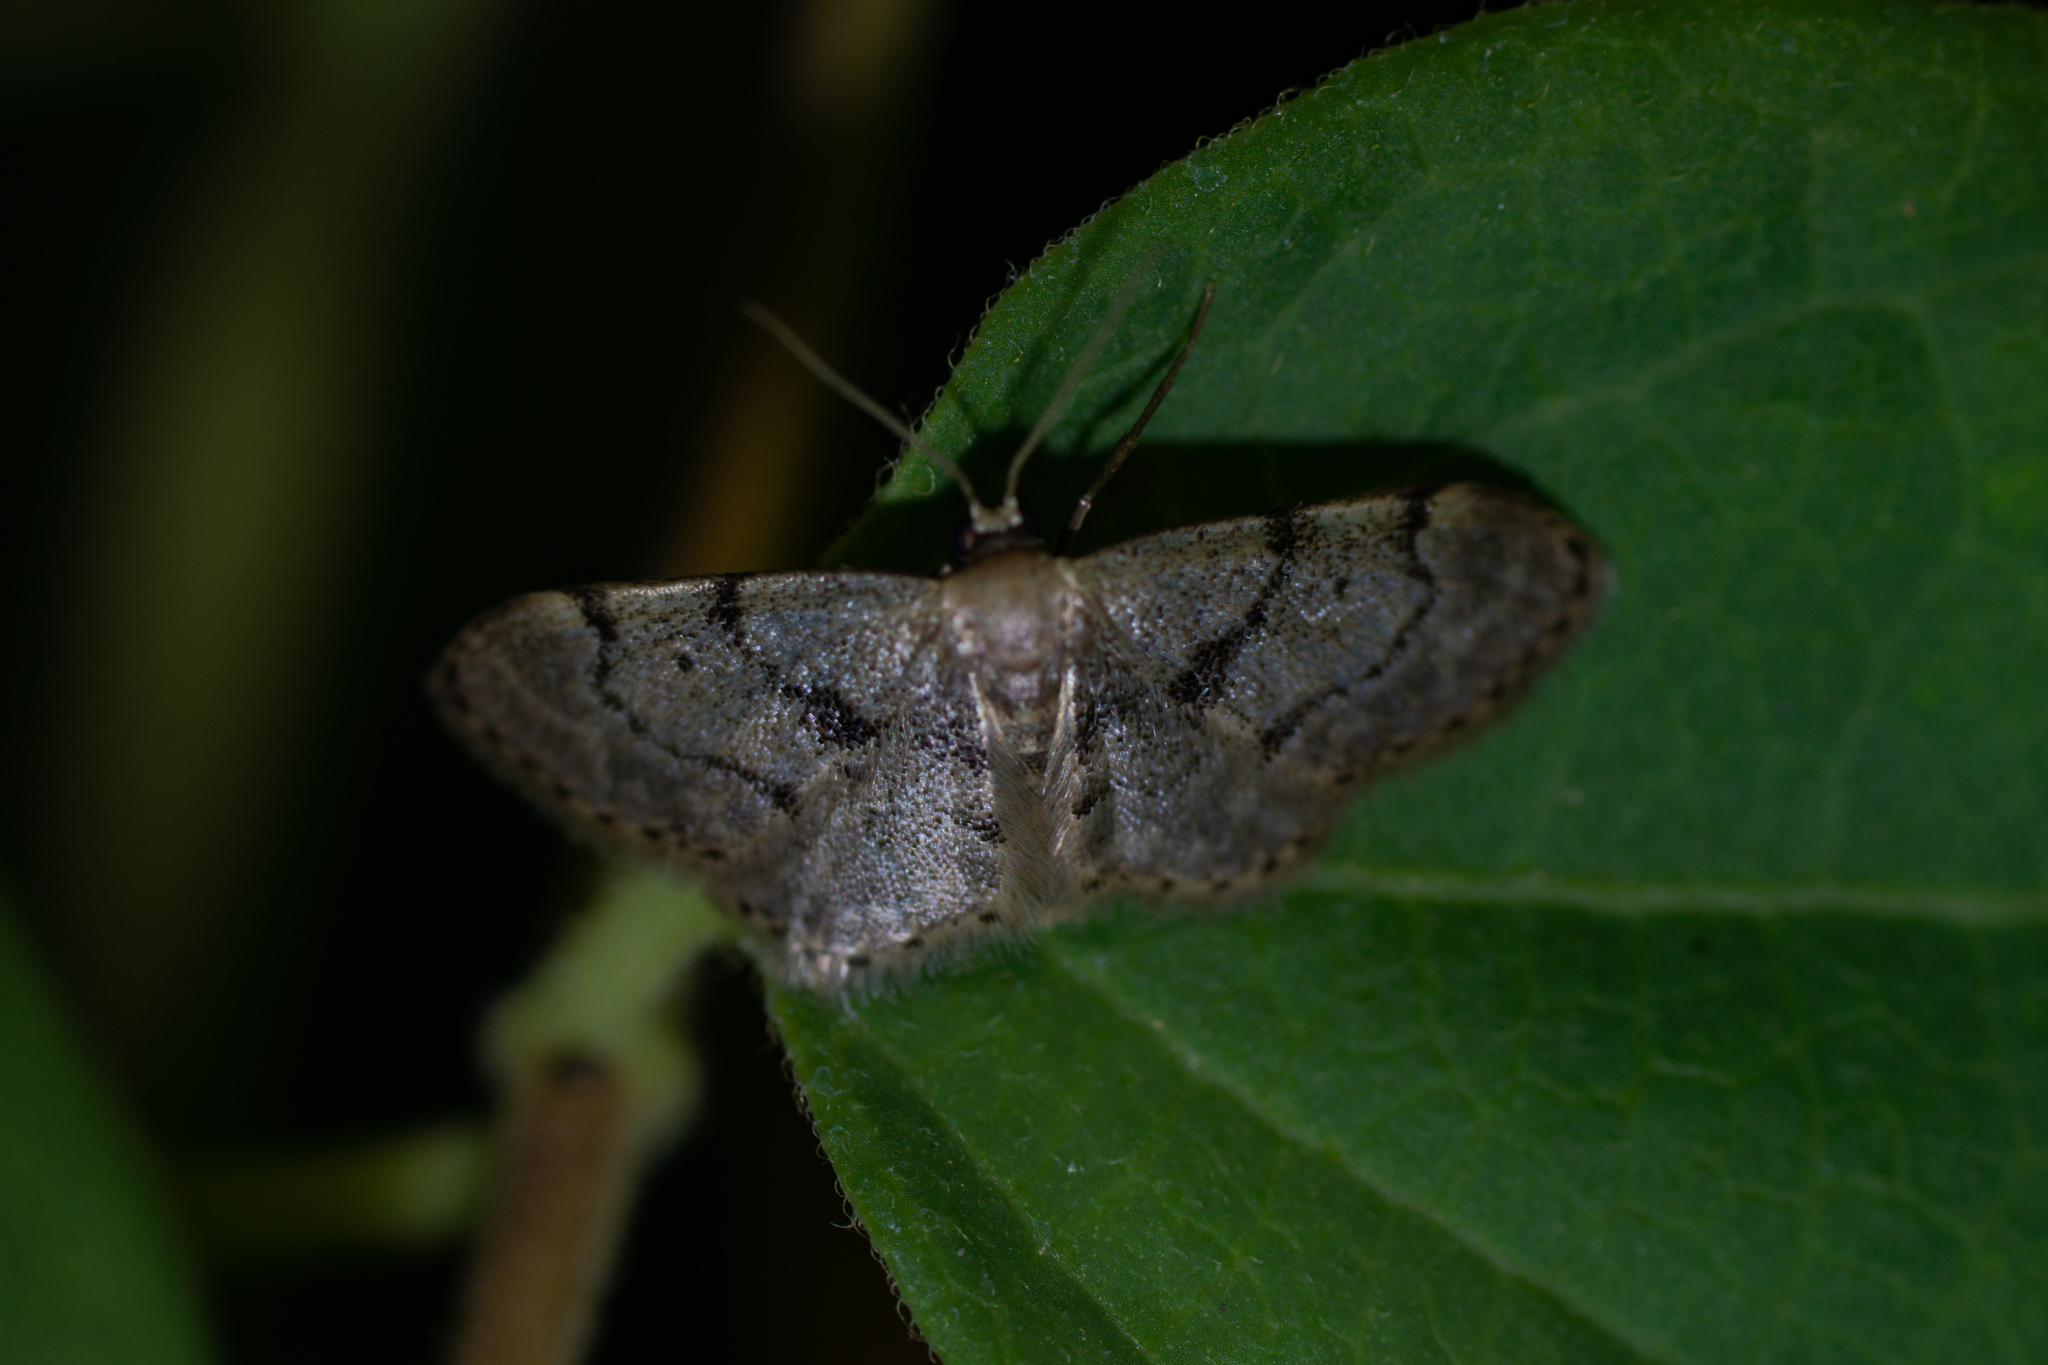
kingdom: Animalia
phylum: Arthropoda
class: Insecta
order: Lepidoptera
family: Geometridae
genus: Idaea
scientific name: Idaea laevigata
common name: Strange wave
